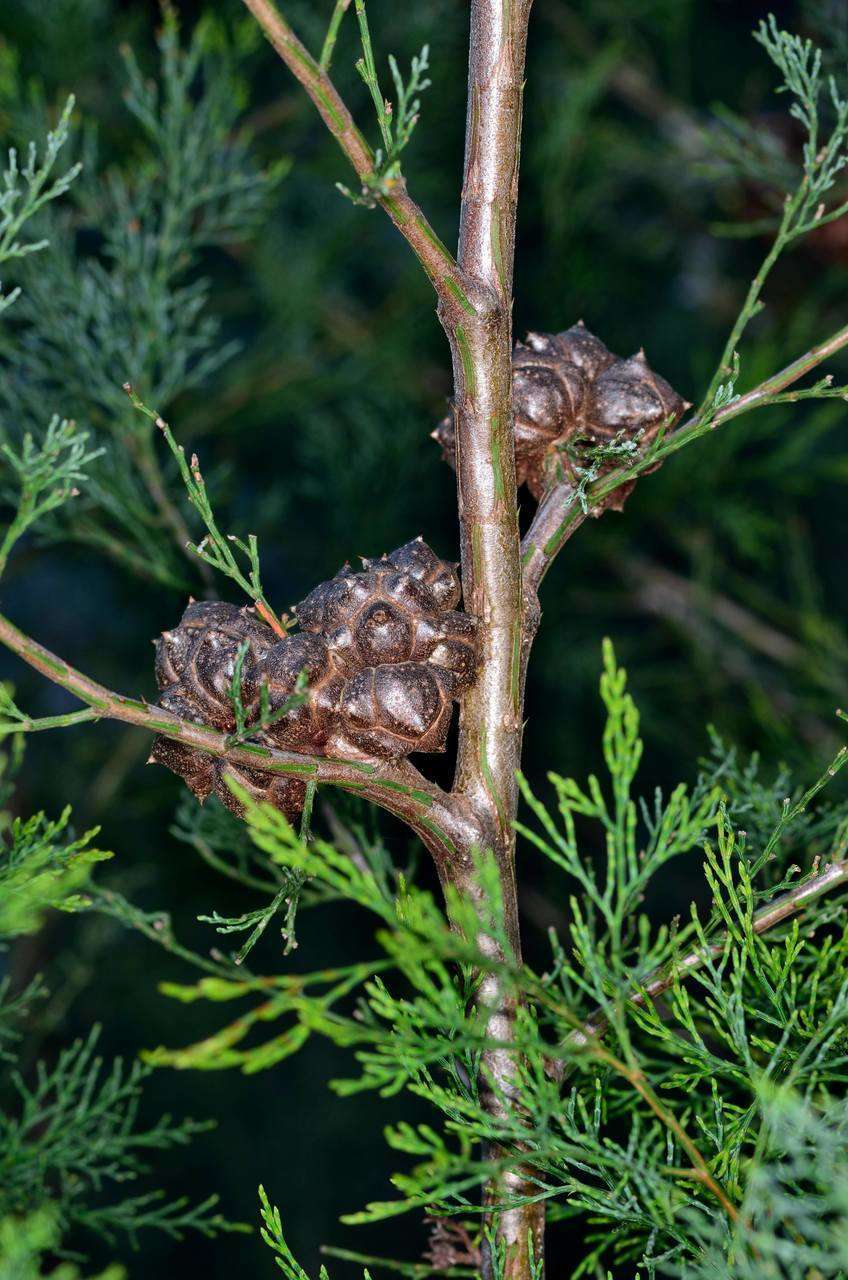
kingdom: Plantae
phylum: Tracheophyta
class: Pinopsida
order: Pinales
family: Cupressaceae
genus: Callitris
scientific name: Callitris rhomboidea
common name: Illawara mountain pine
